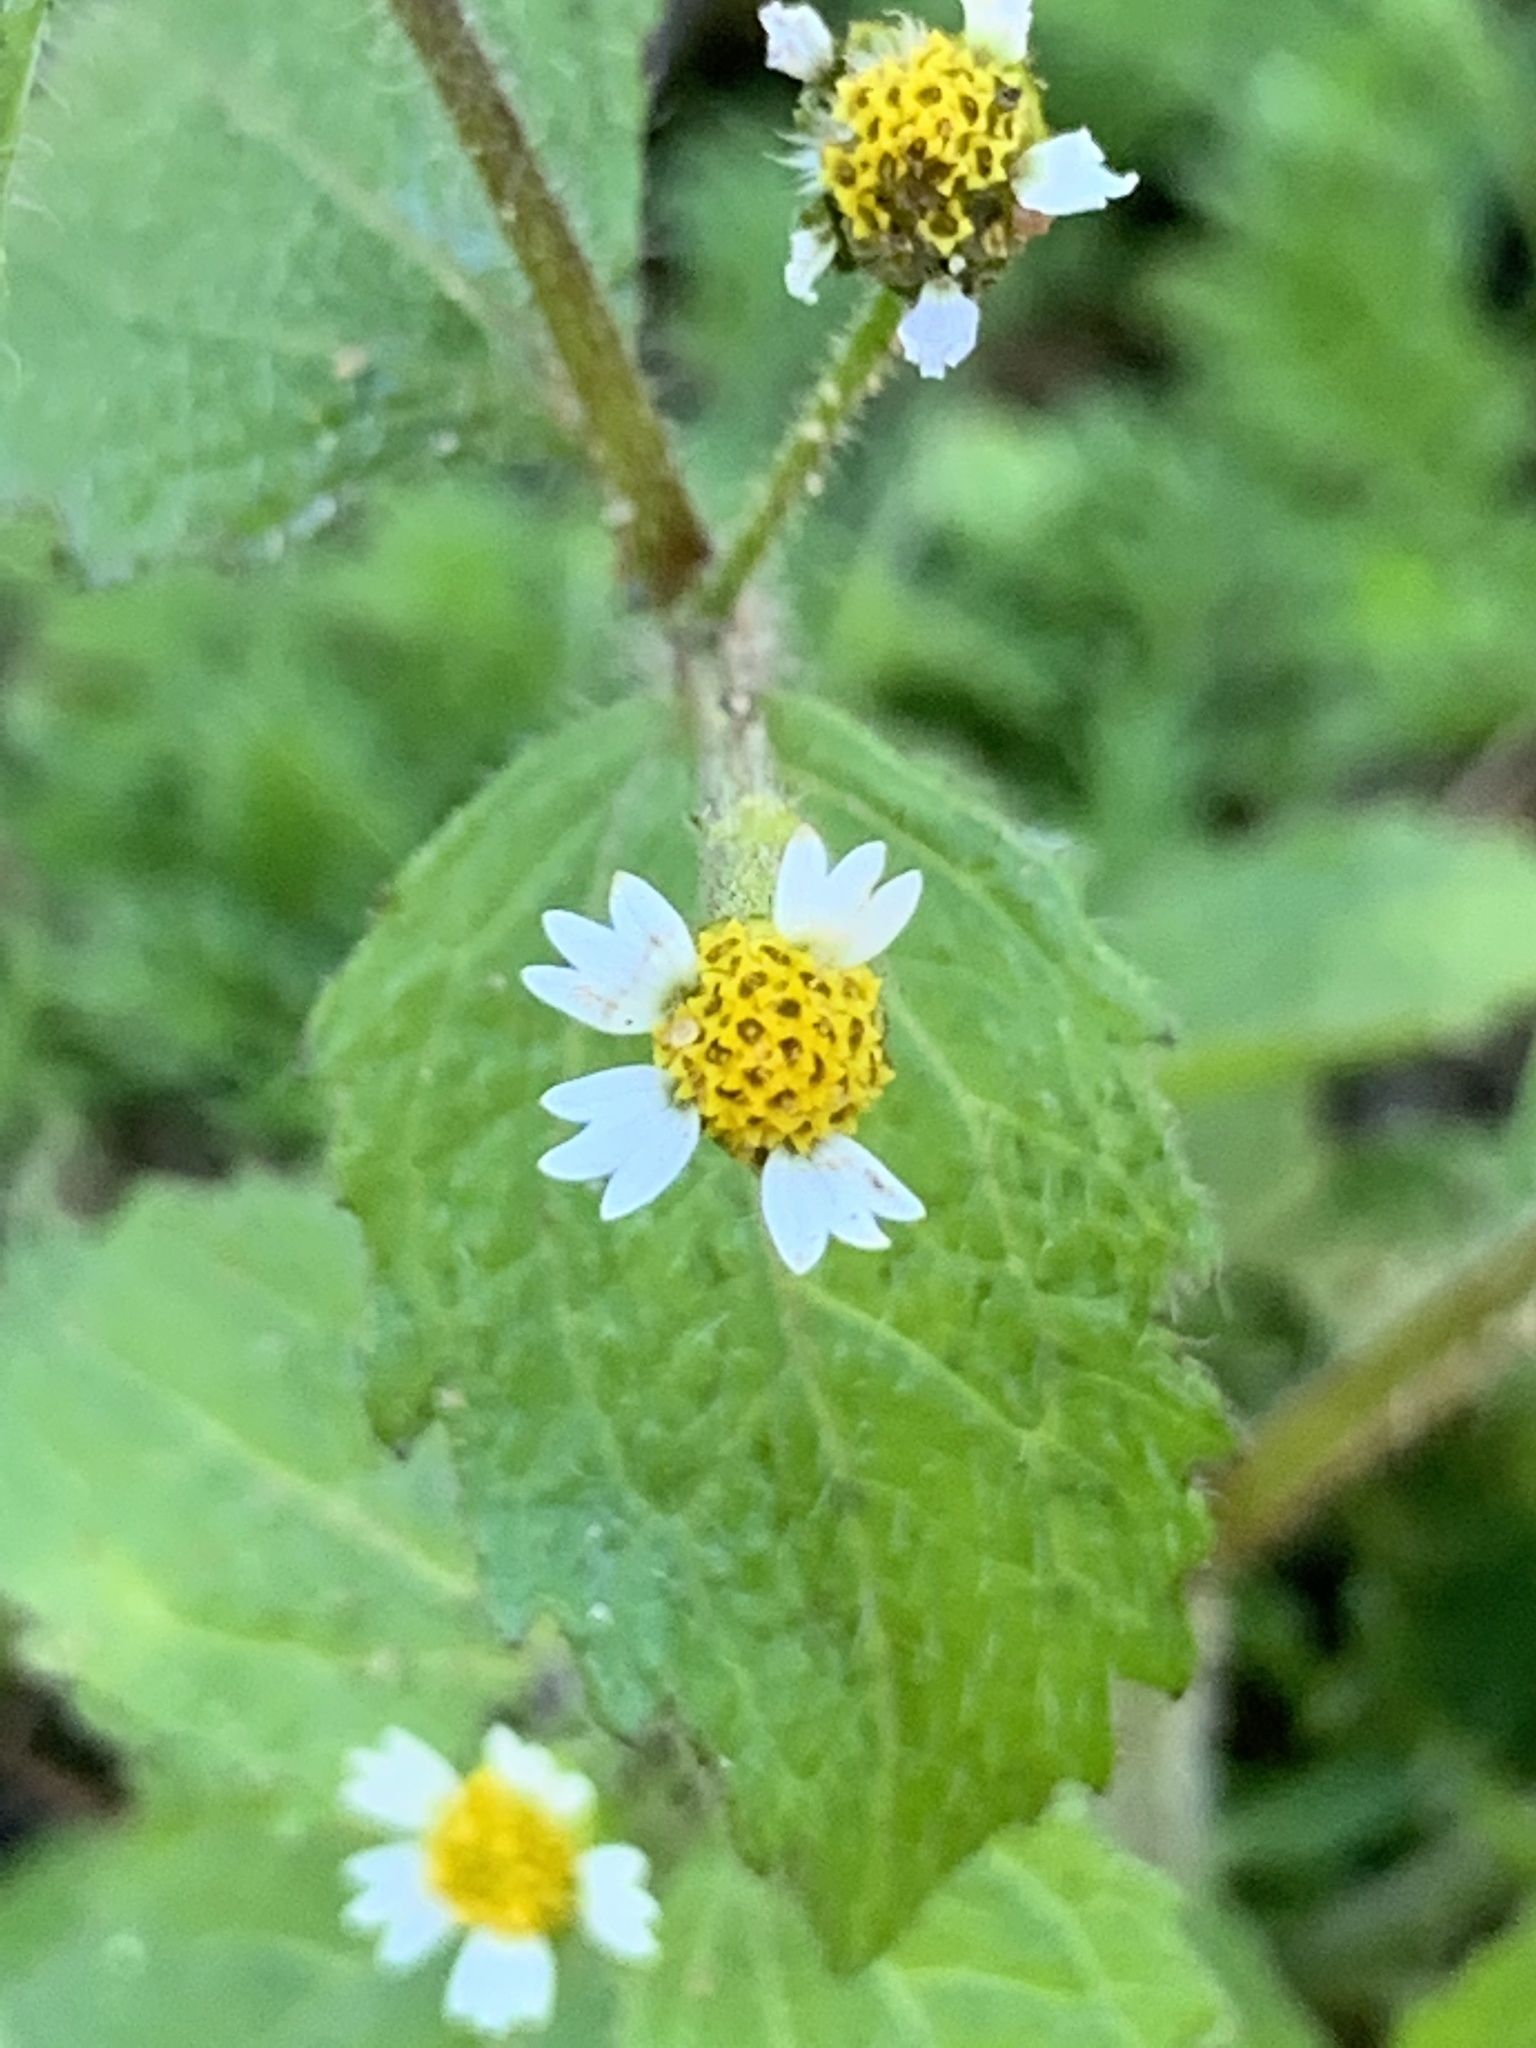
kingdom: Plantae
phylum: Tracheophyta
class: Magnoliopsida
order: Asterales
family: Asteraceae
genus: Galinsoga
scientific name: Galinsoga quadriradiata
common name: Shaggy soldier
